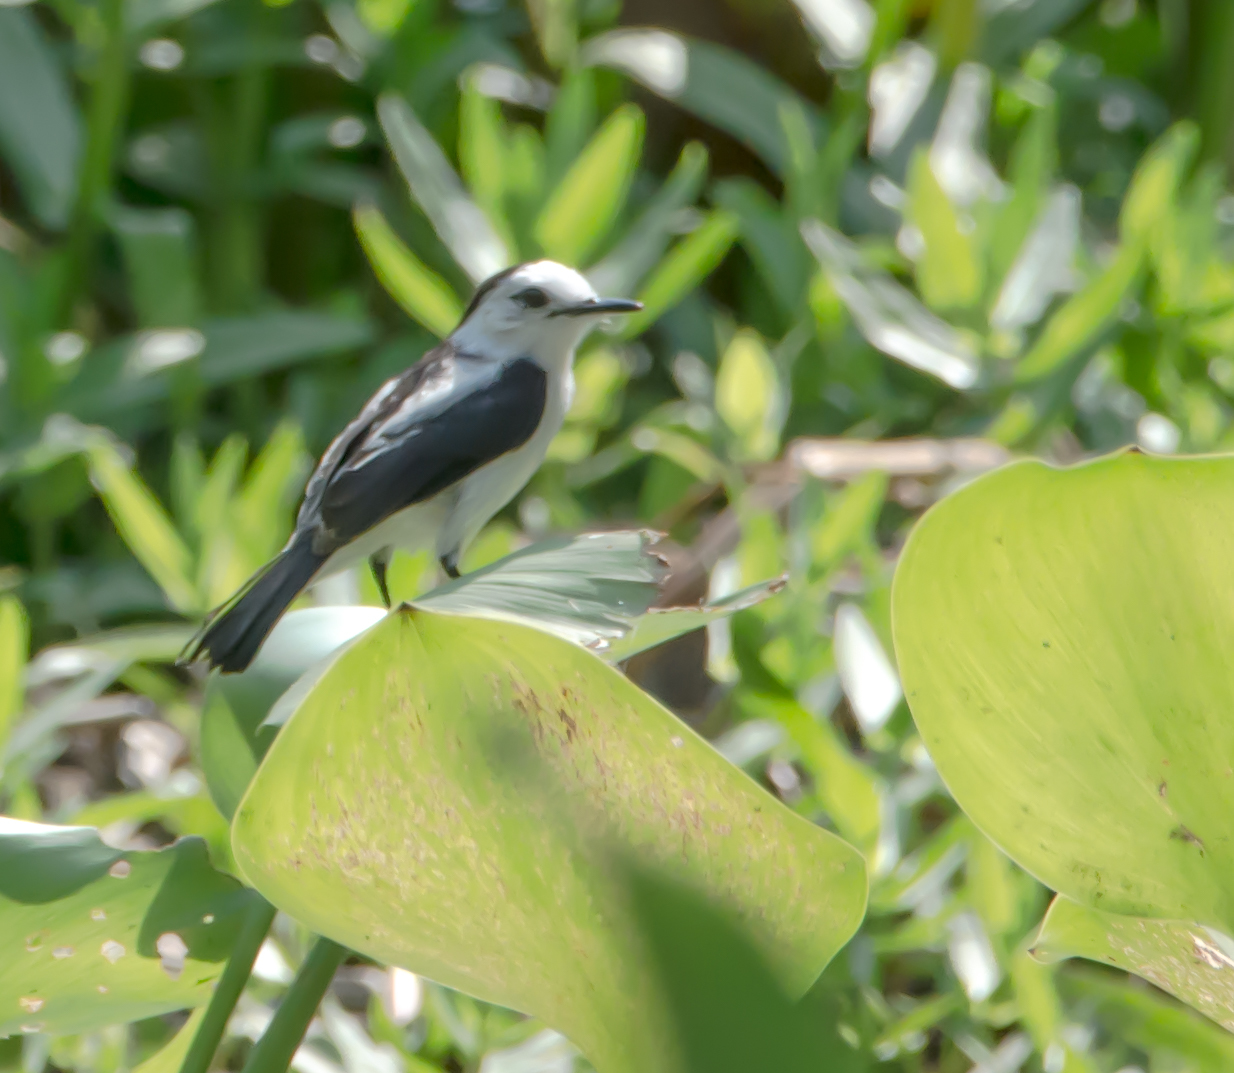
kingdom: Animalia
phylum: Chordata
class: Aves
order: Passeriformes
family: Tyrannidae
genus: Fluvicola
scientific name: Fluvicola pica
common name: Pied water-tyrant
